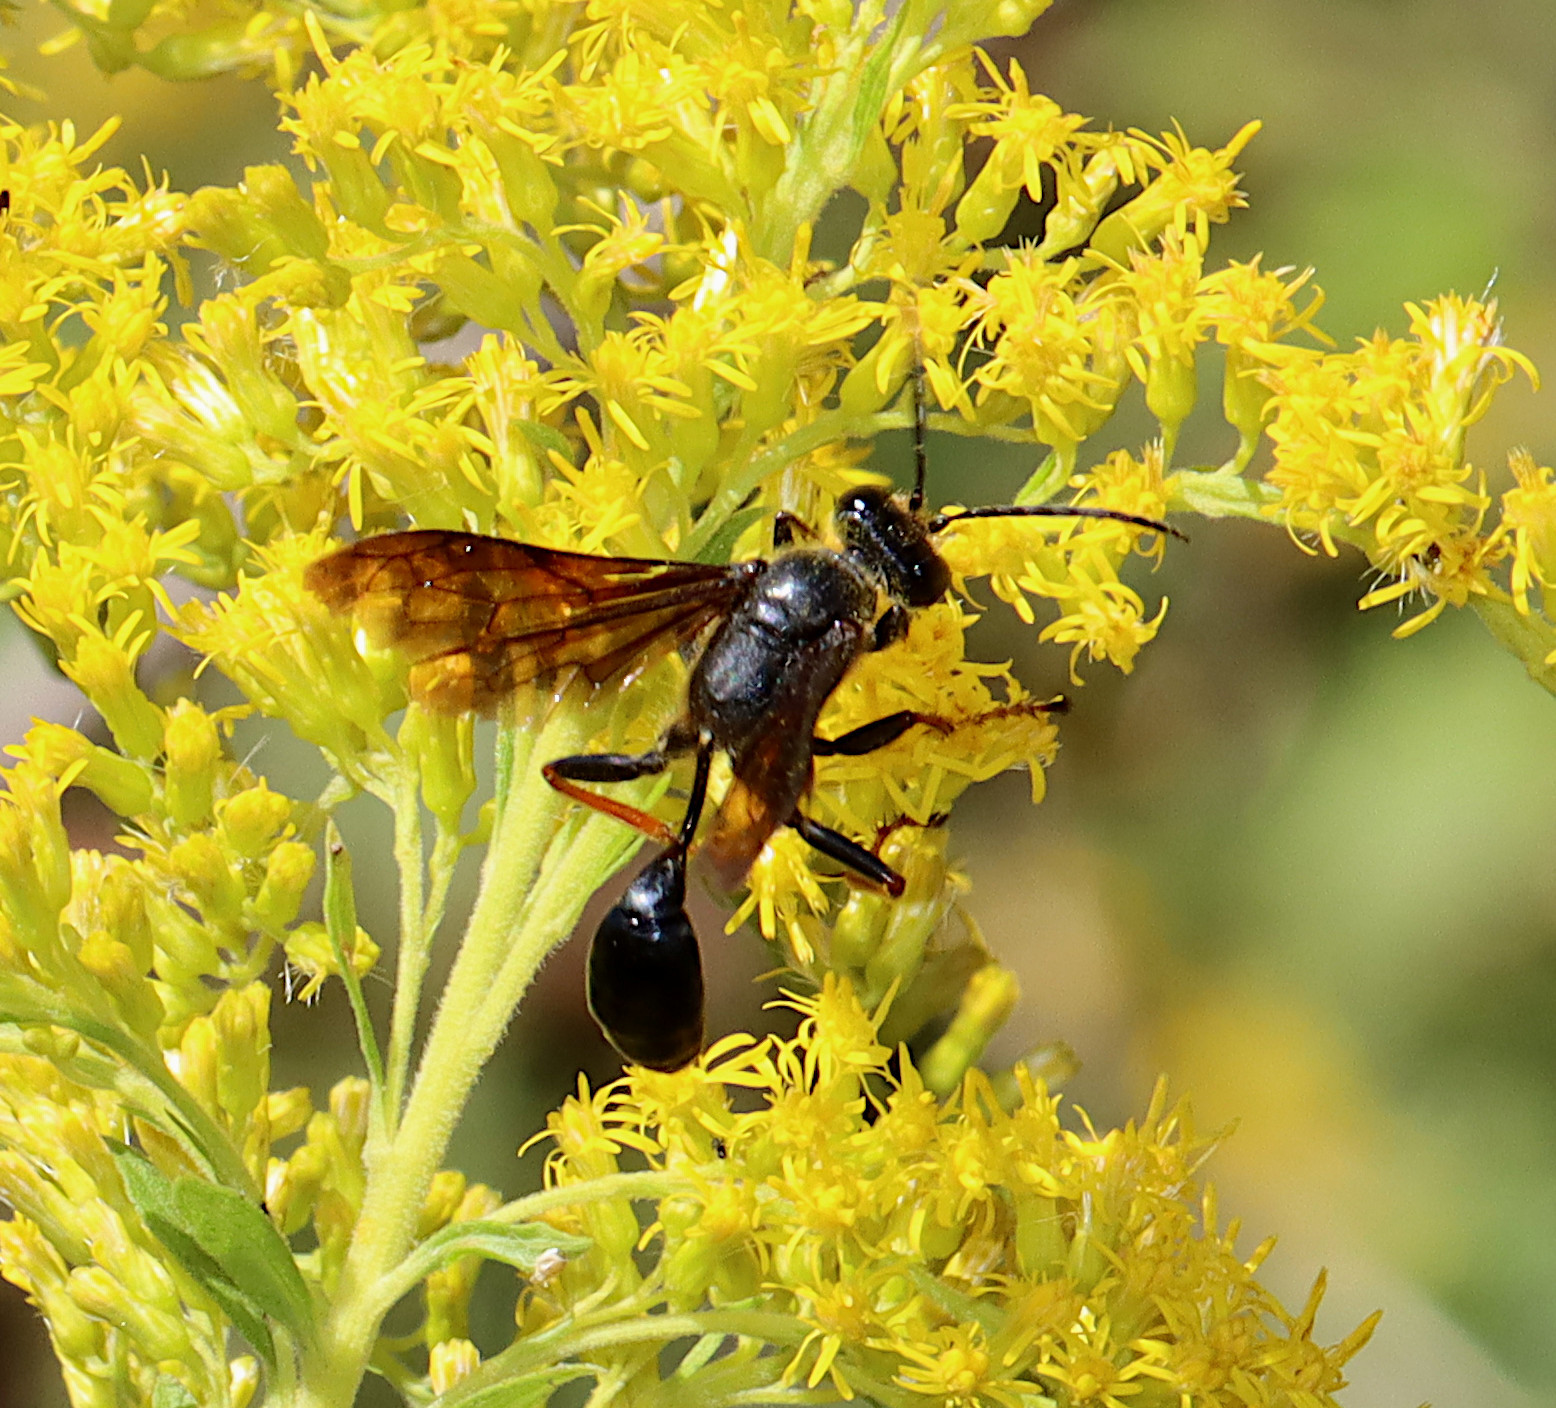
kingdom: Animalia
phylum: Arthropoda
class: Insecta
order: Hymenoptera
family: Sphecidae
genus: Isodontia
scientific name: Isodontia auripes
